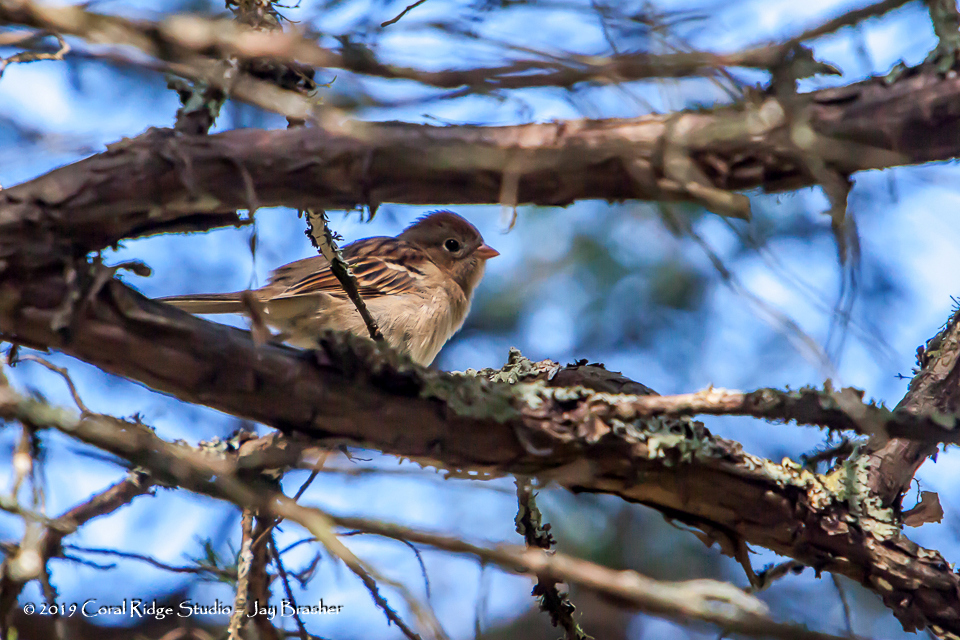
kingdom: Animalia
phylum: Chordata
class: Aves
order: Passeriformes
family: Passerellidae
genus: Spizella
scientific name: Spizella pusilla
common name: Field sparrow
